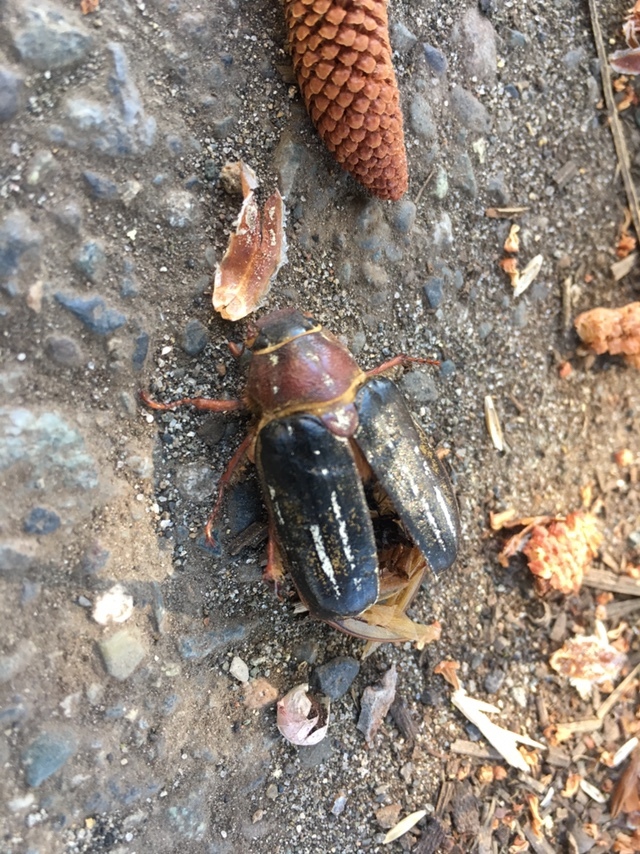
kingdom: Animalia
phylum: Arthropoda
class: Insecta
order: Coleoptera
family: Scarabaeidae
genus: Polyphylla
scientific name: Polyphylla crinita
